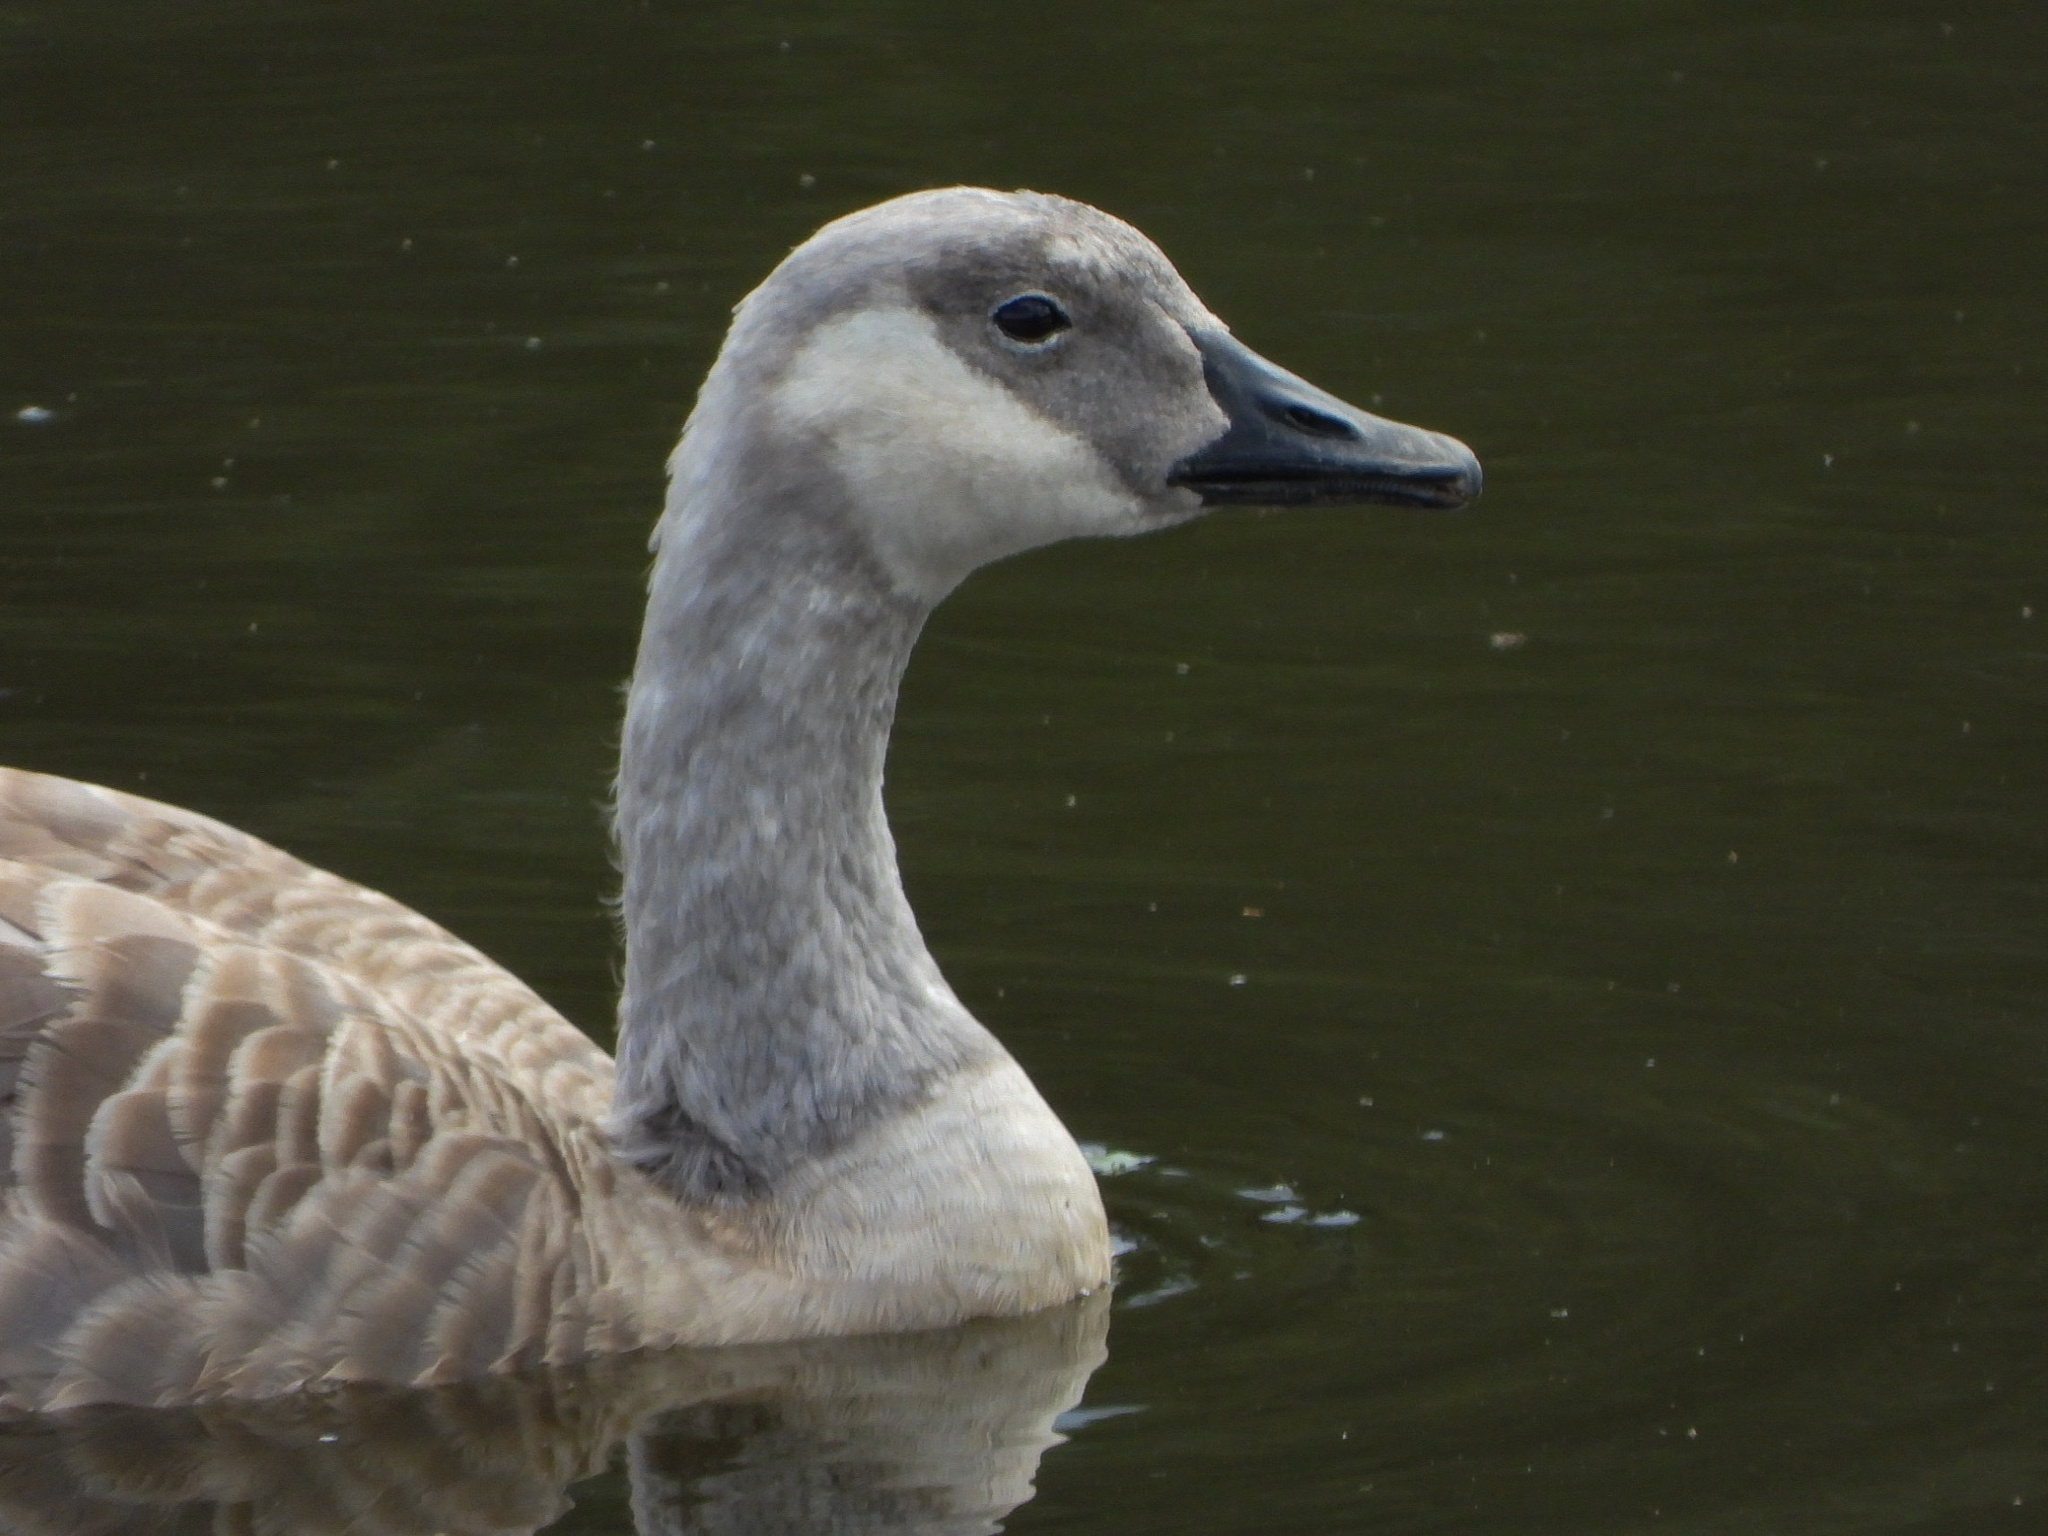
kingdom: Animalia
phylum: Chordata
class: Aves
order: Anseriformes
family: Anatidae
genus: Branta
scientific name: Branta canadensis
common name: Canada goose
